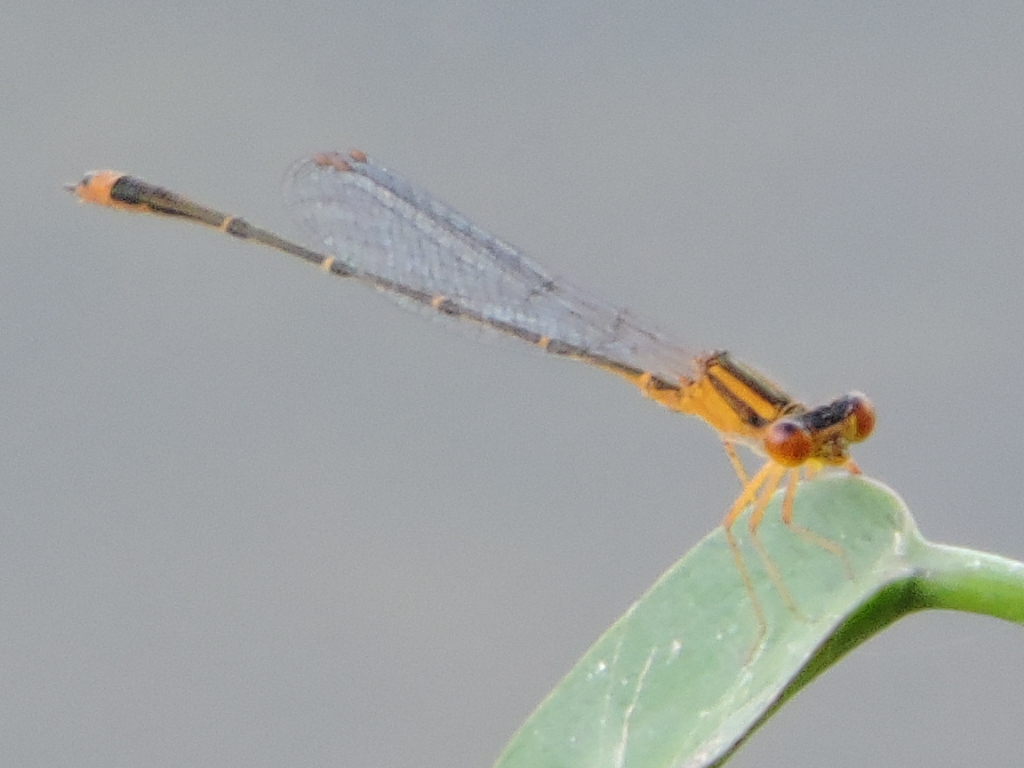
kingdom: Animalia
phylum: Arthropoda
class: Insecta
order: Odonata
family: Coenagrionidae
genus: Enallagma
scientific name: Enallagma signatum
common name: Orange bluet
